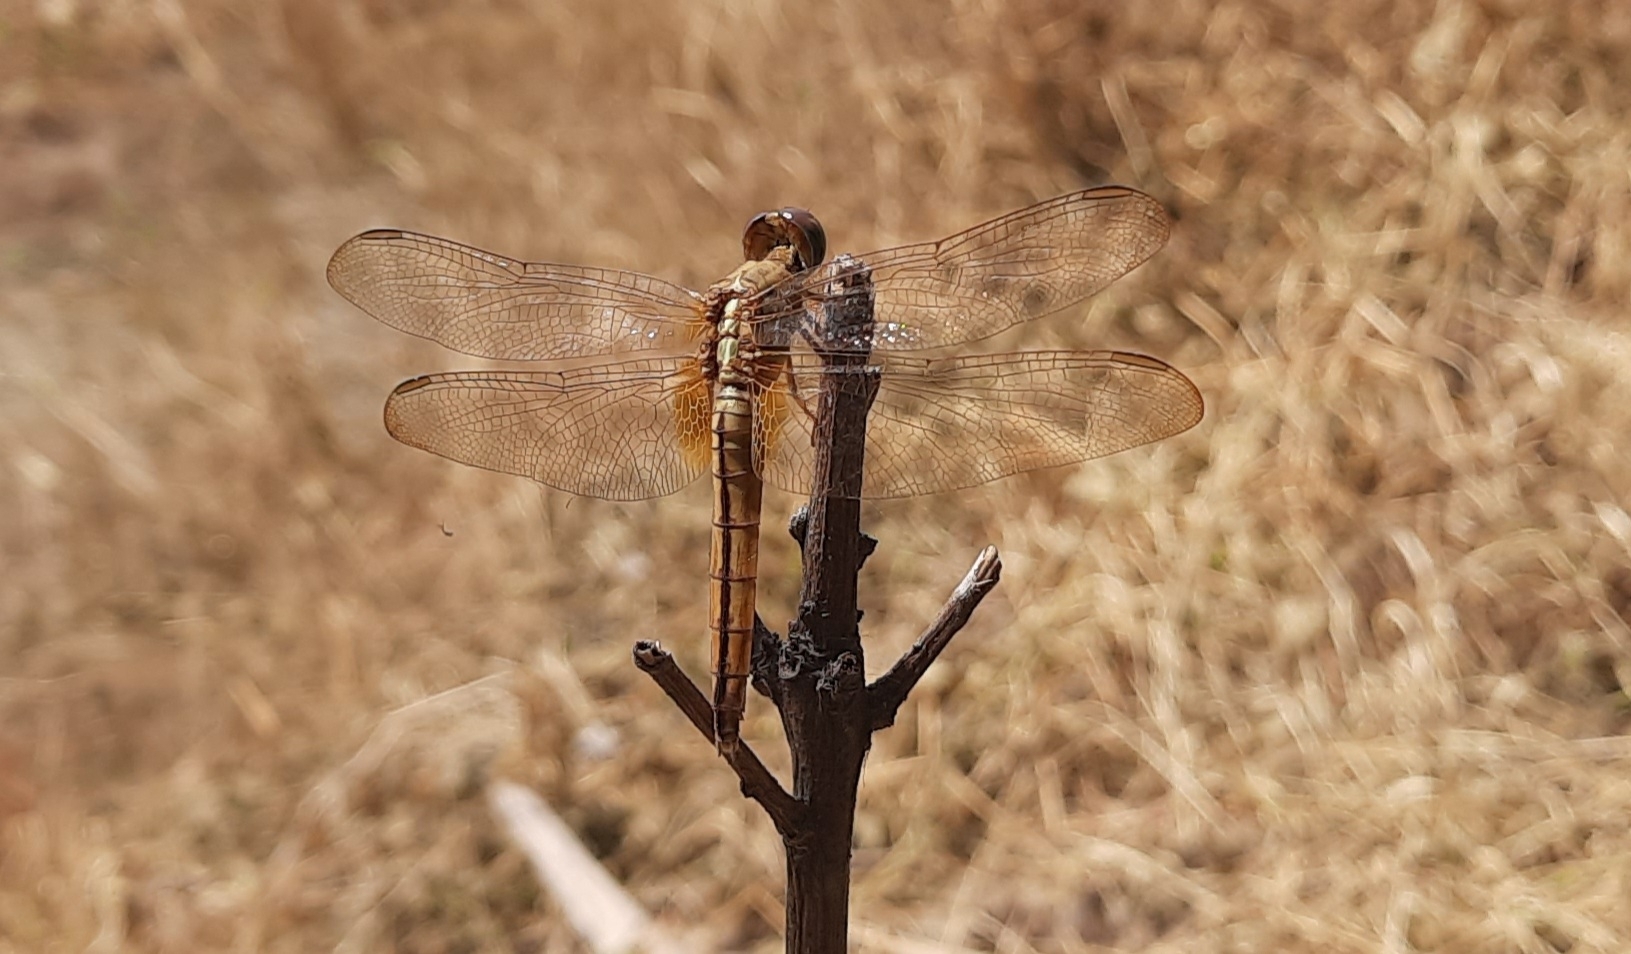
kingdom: Animalia
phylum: Arthropoda
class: Insecta
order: Odonata
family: Libellulidae
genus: Crocothemis
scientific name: Crocothemis servilia
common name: Scarlet skimmer
